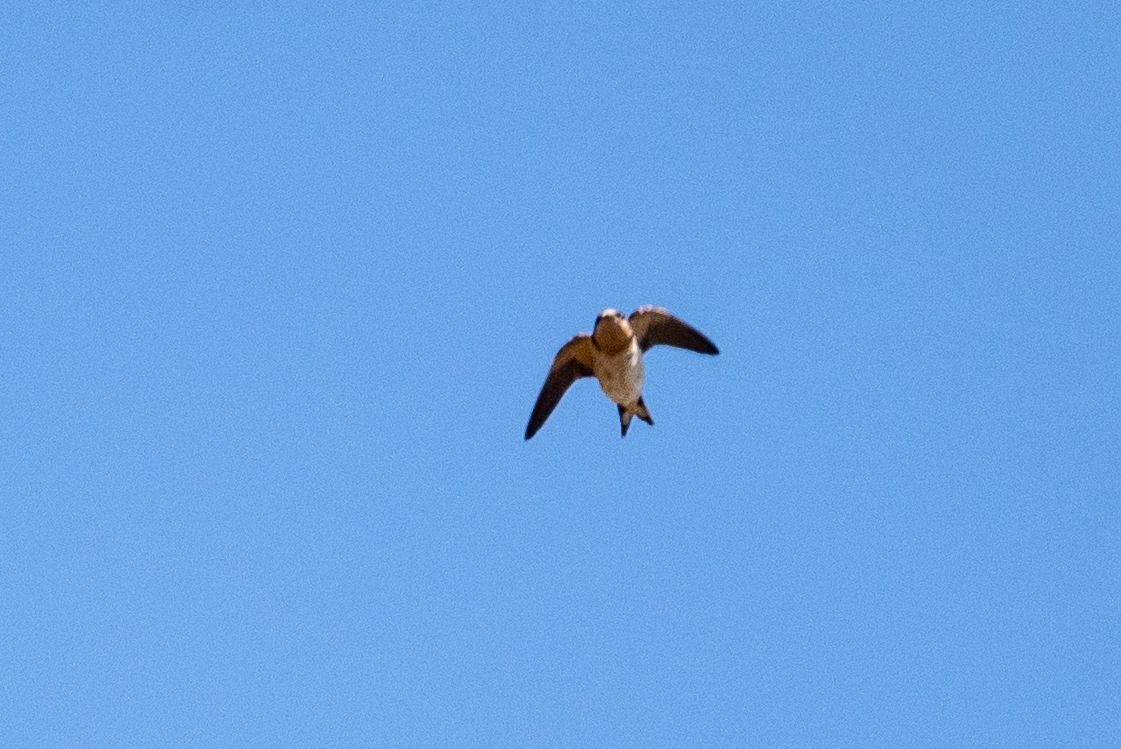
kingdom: Animalia
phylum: Chordata
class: Aves
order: Passeriformes
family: Hirundinidae
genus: Hirundo
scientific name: Hirundo rustica
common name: Barn swallow
